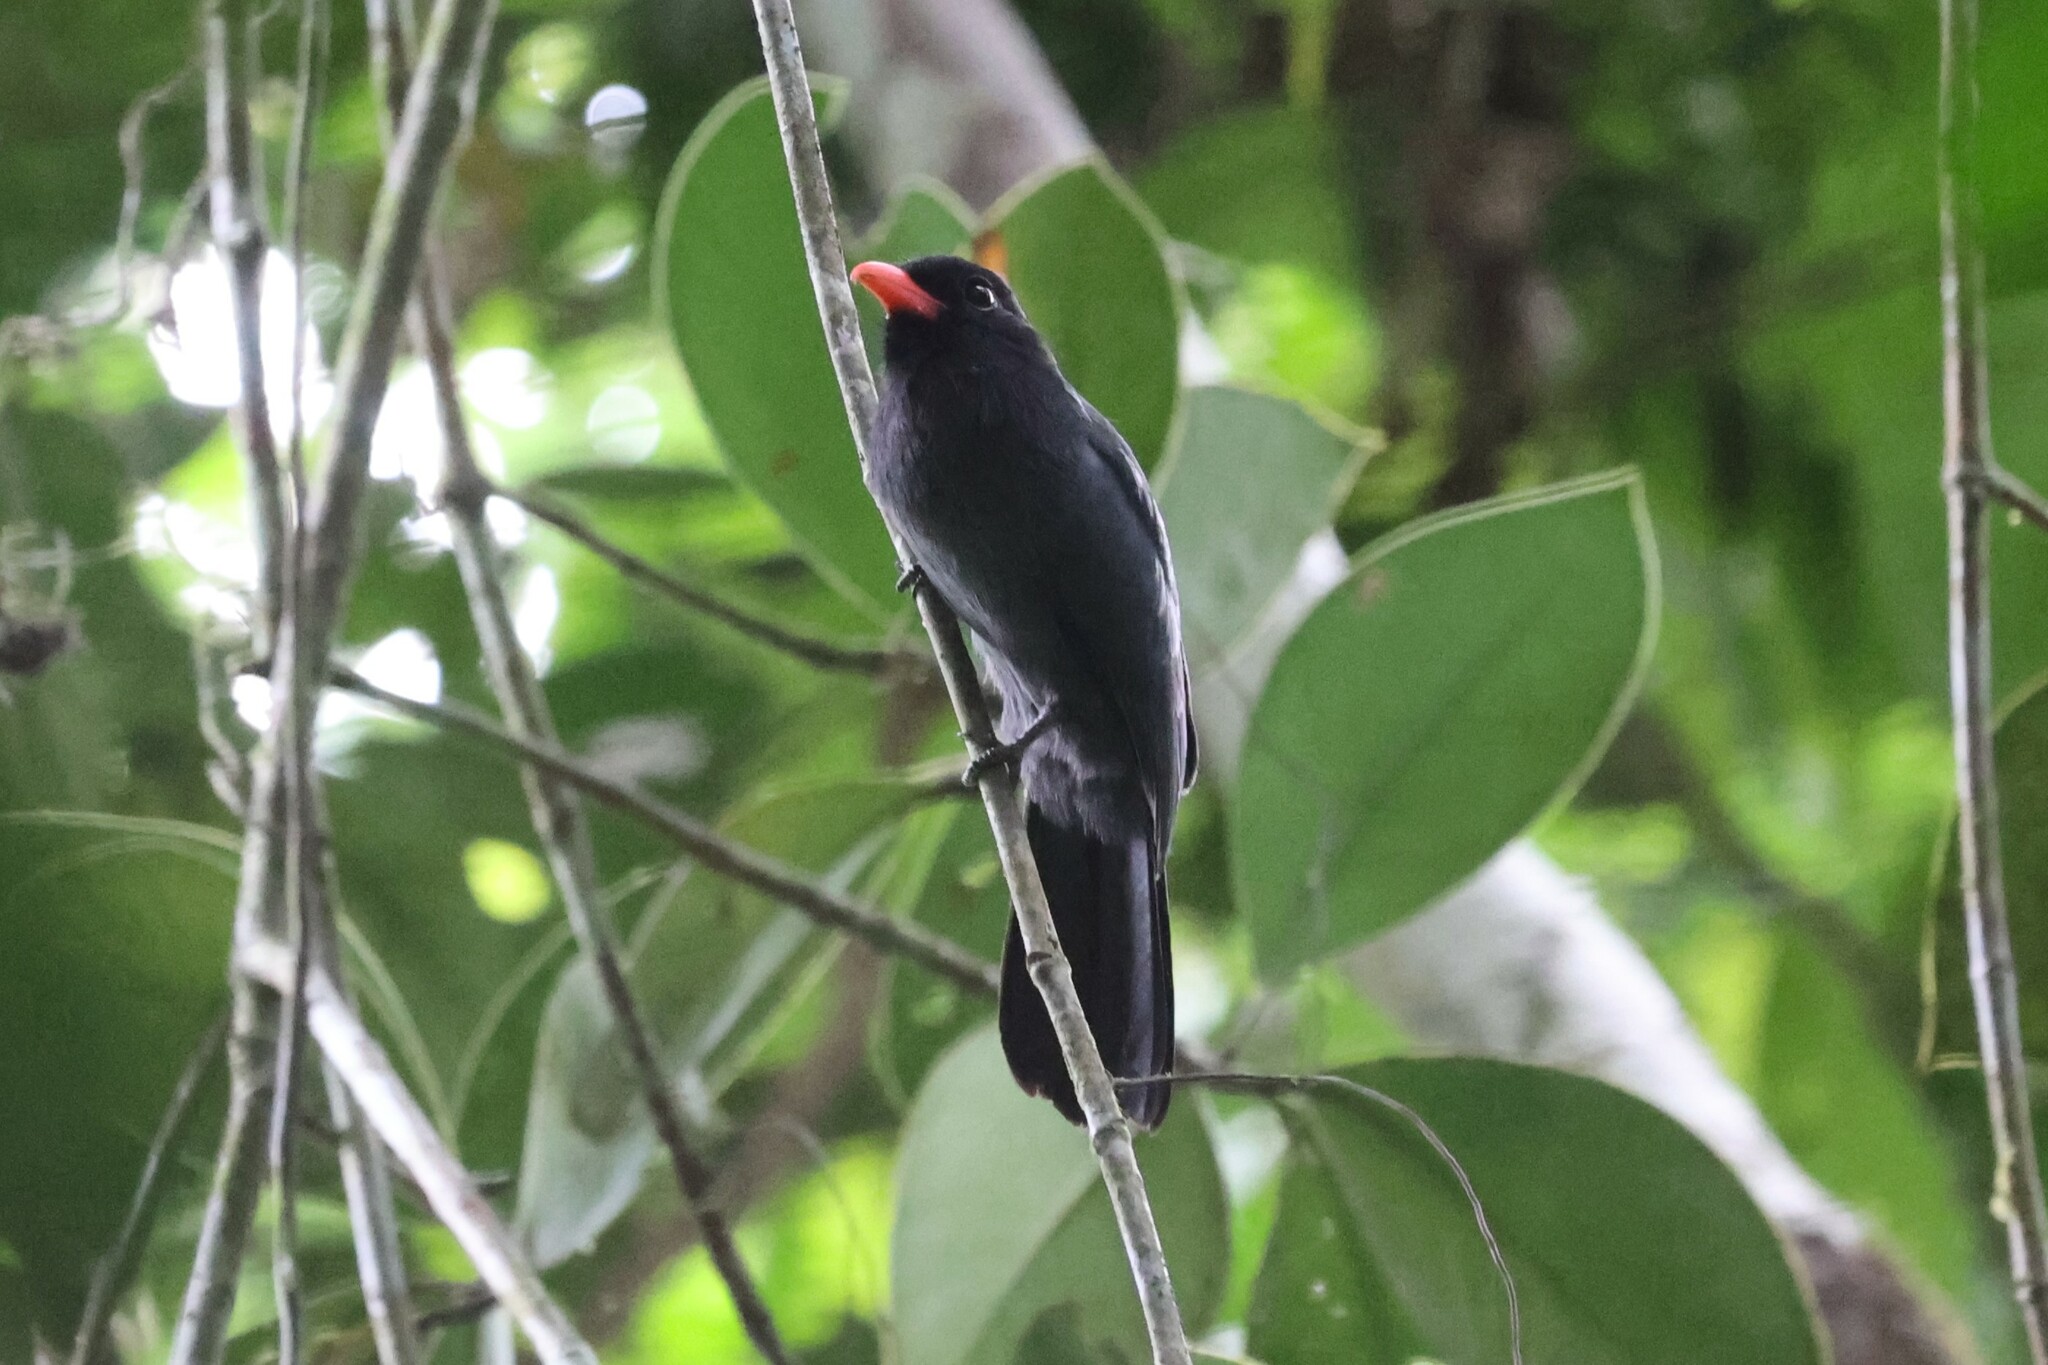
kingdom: Animalia
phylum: Chordata
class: Aves
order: Piciformes
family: Bucconidae
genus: Monasa
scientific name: Monasa nigrifrons
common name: Black-fronted nunbird
